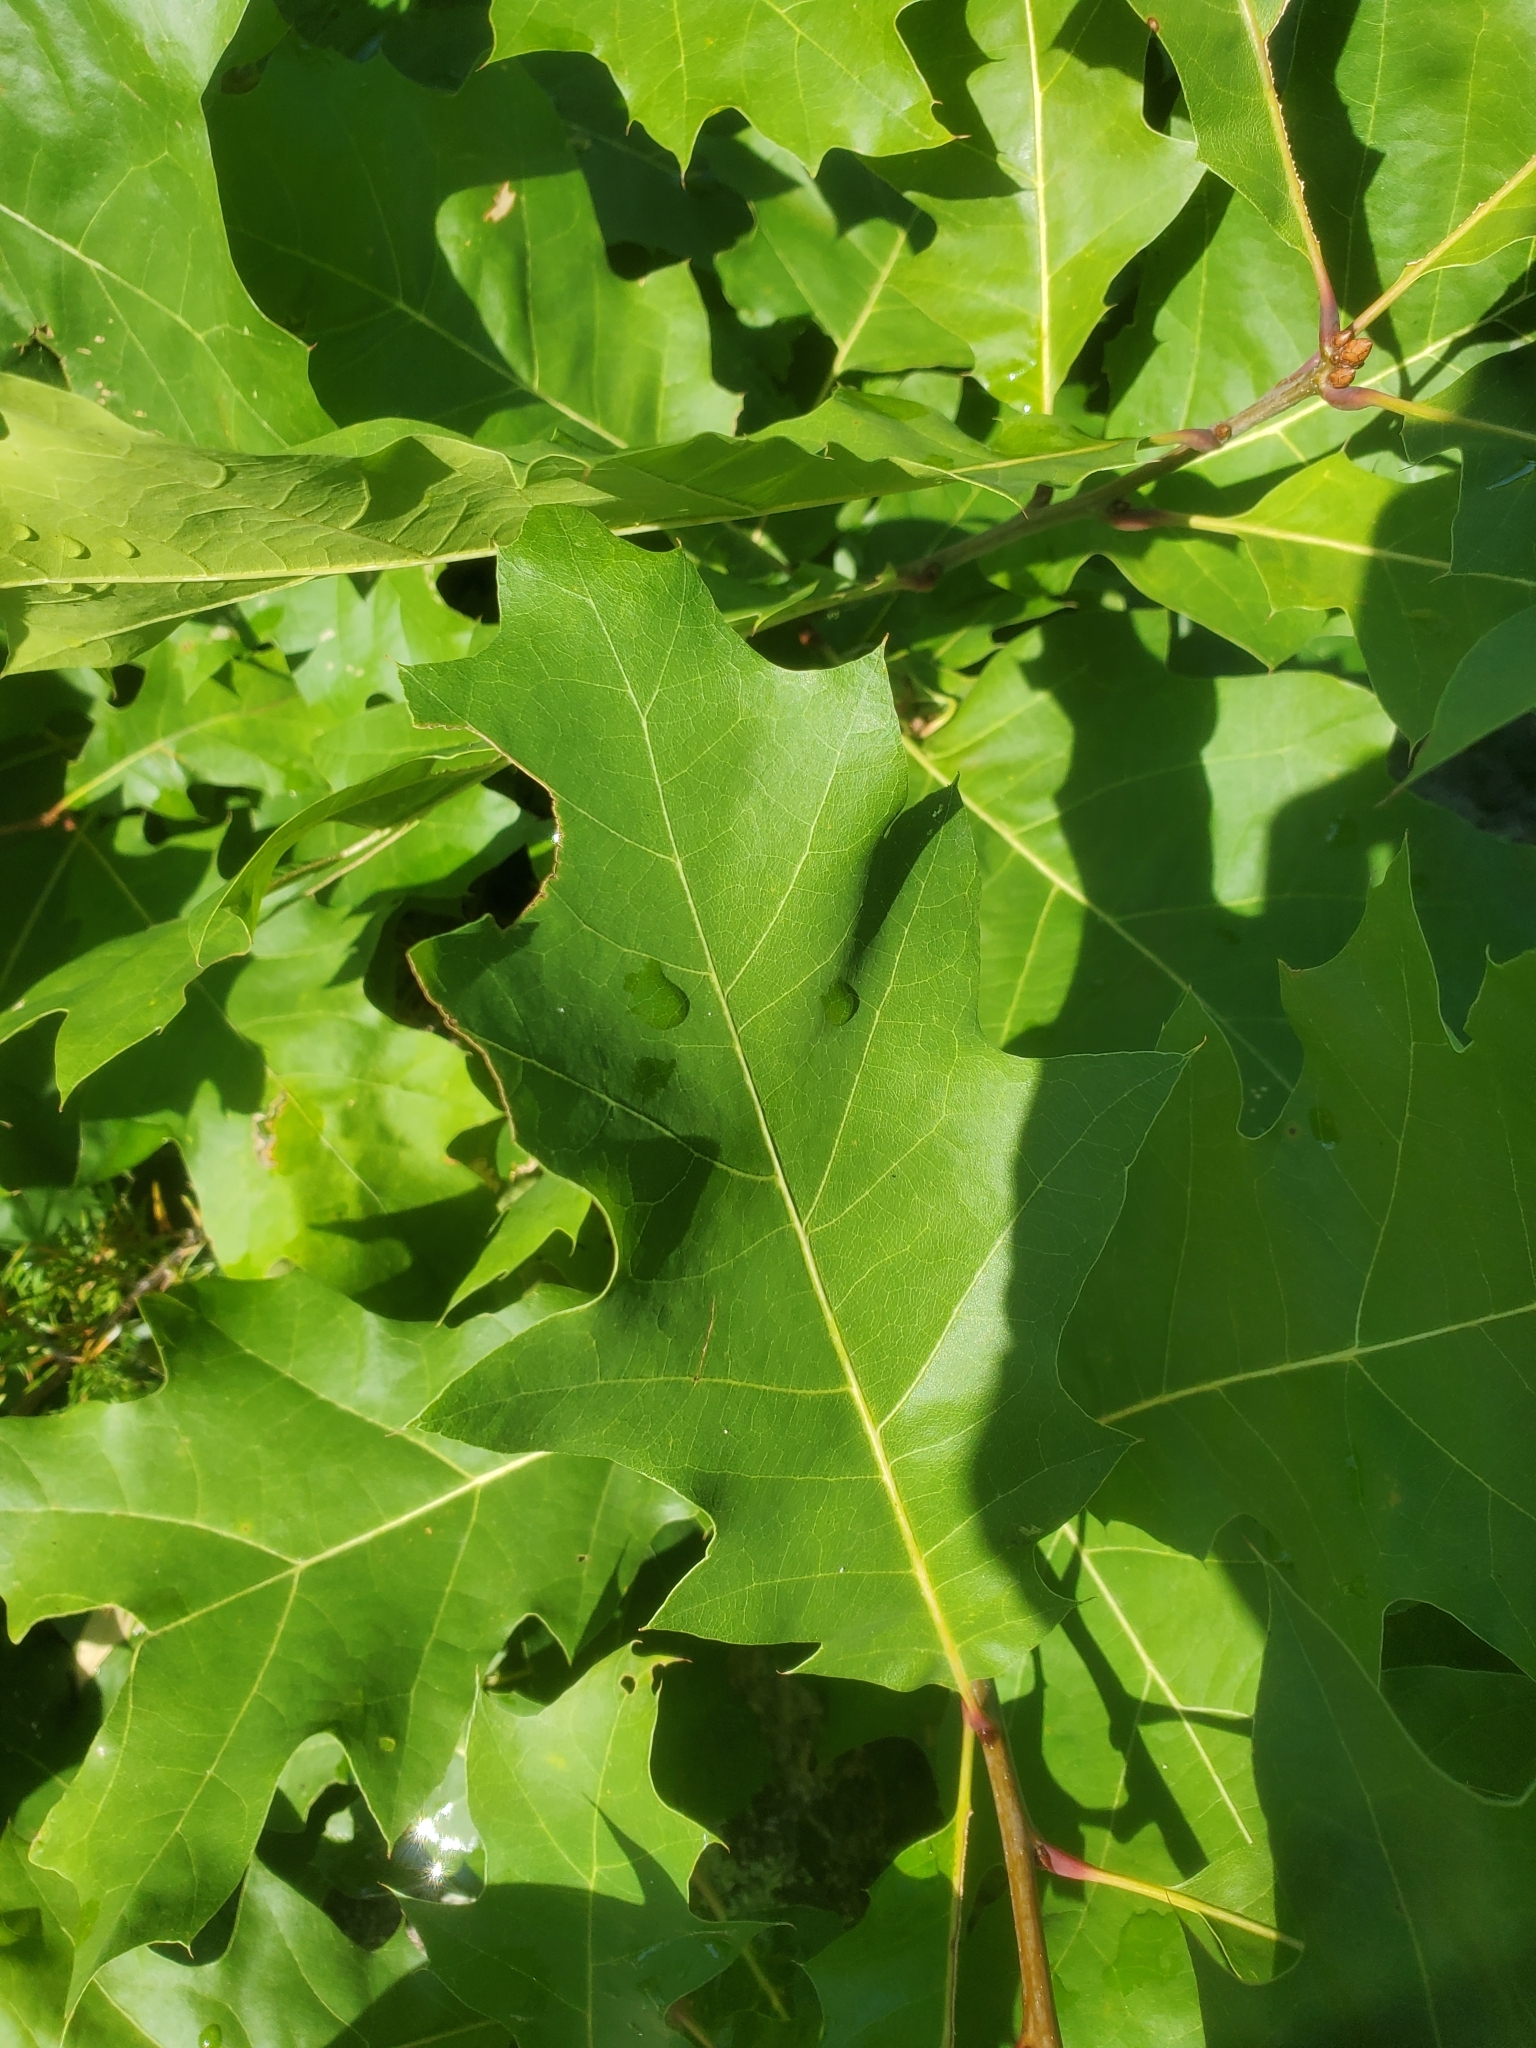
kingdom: Plantae
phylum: Tracheophyta
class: Magnoliopsida
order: Fagales
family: Fagaceae
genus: Quercus
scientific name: Quercus rubra
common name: Red oak
